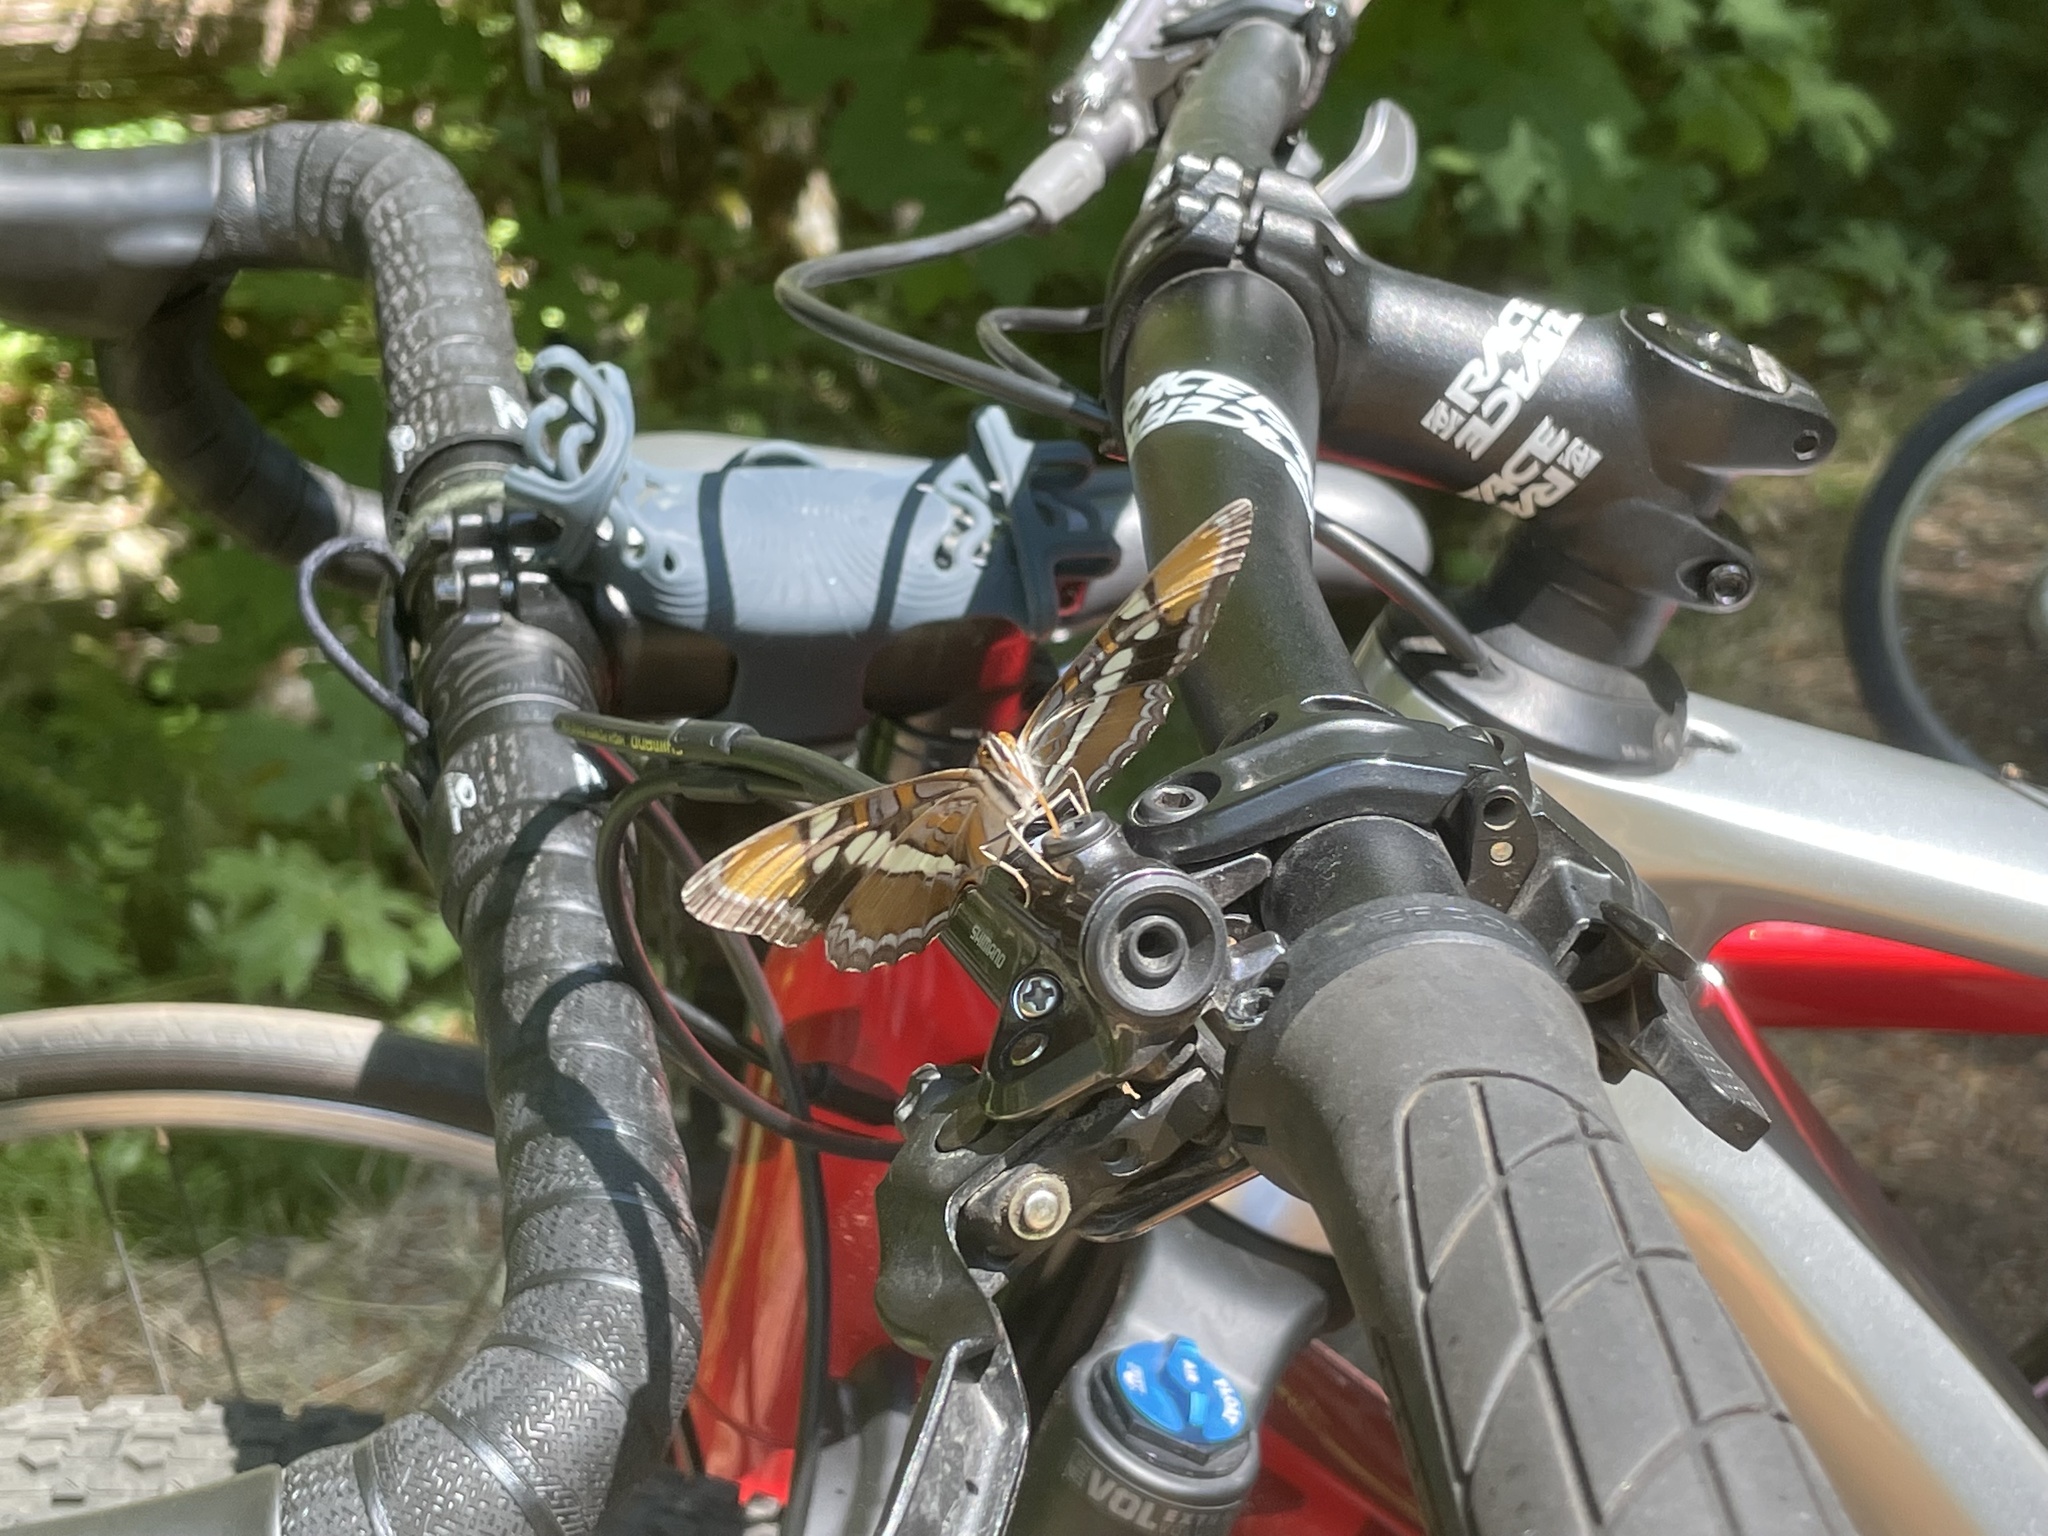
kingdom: Animalia
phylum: Arthropoda
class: Insecta
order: Lepidoptera
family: Nymphalidae
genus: Limenitis
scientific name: Limenitis bredowii
